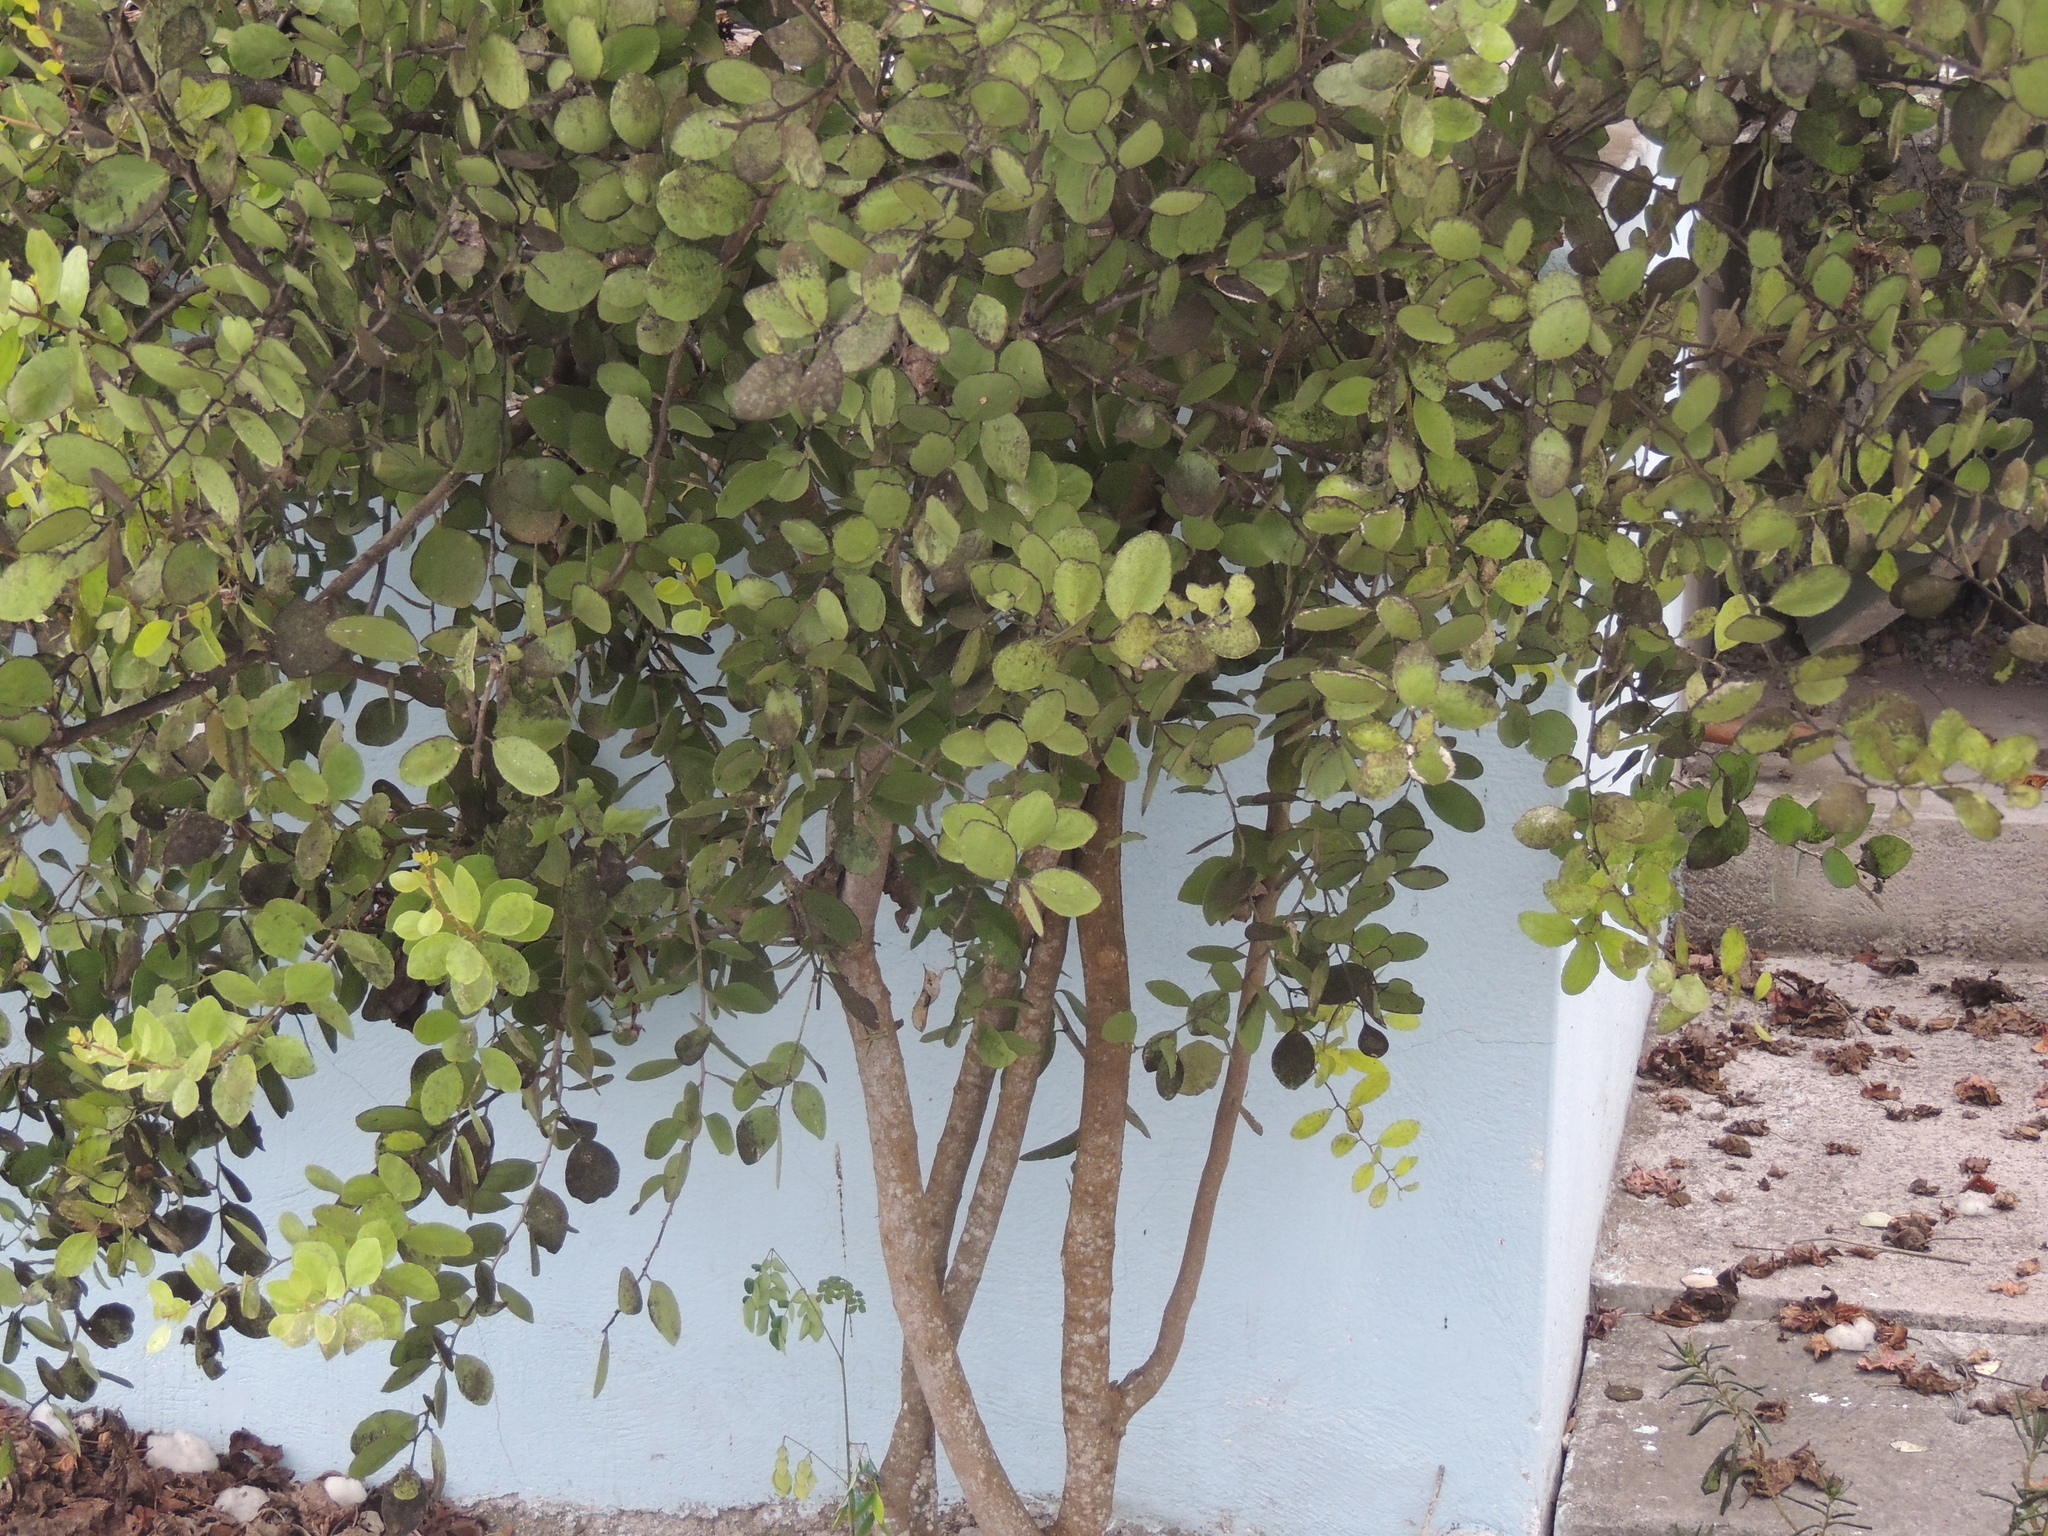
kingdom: Plantae
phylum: Tracheophyta
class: Magnoliopsida
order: Malvales
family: Malvaceae
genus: Gossypium
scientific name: Gossypium darwinii
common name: Darwin's cotton
